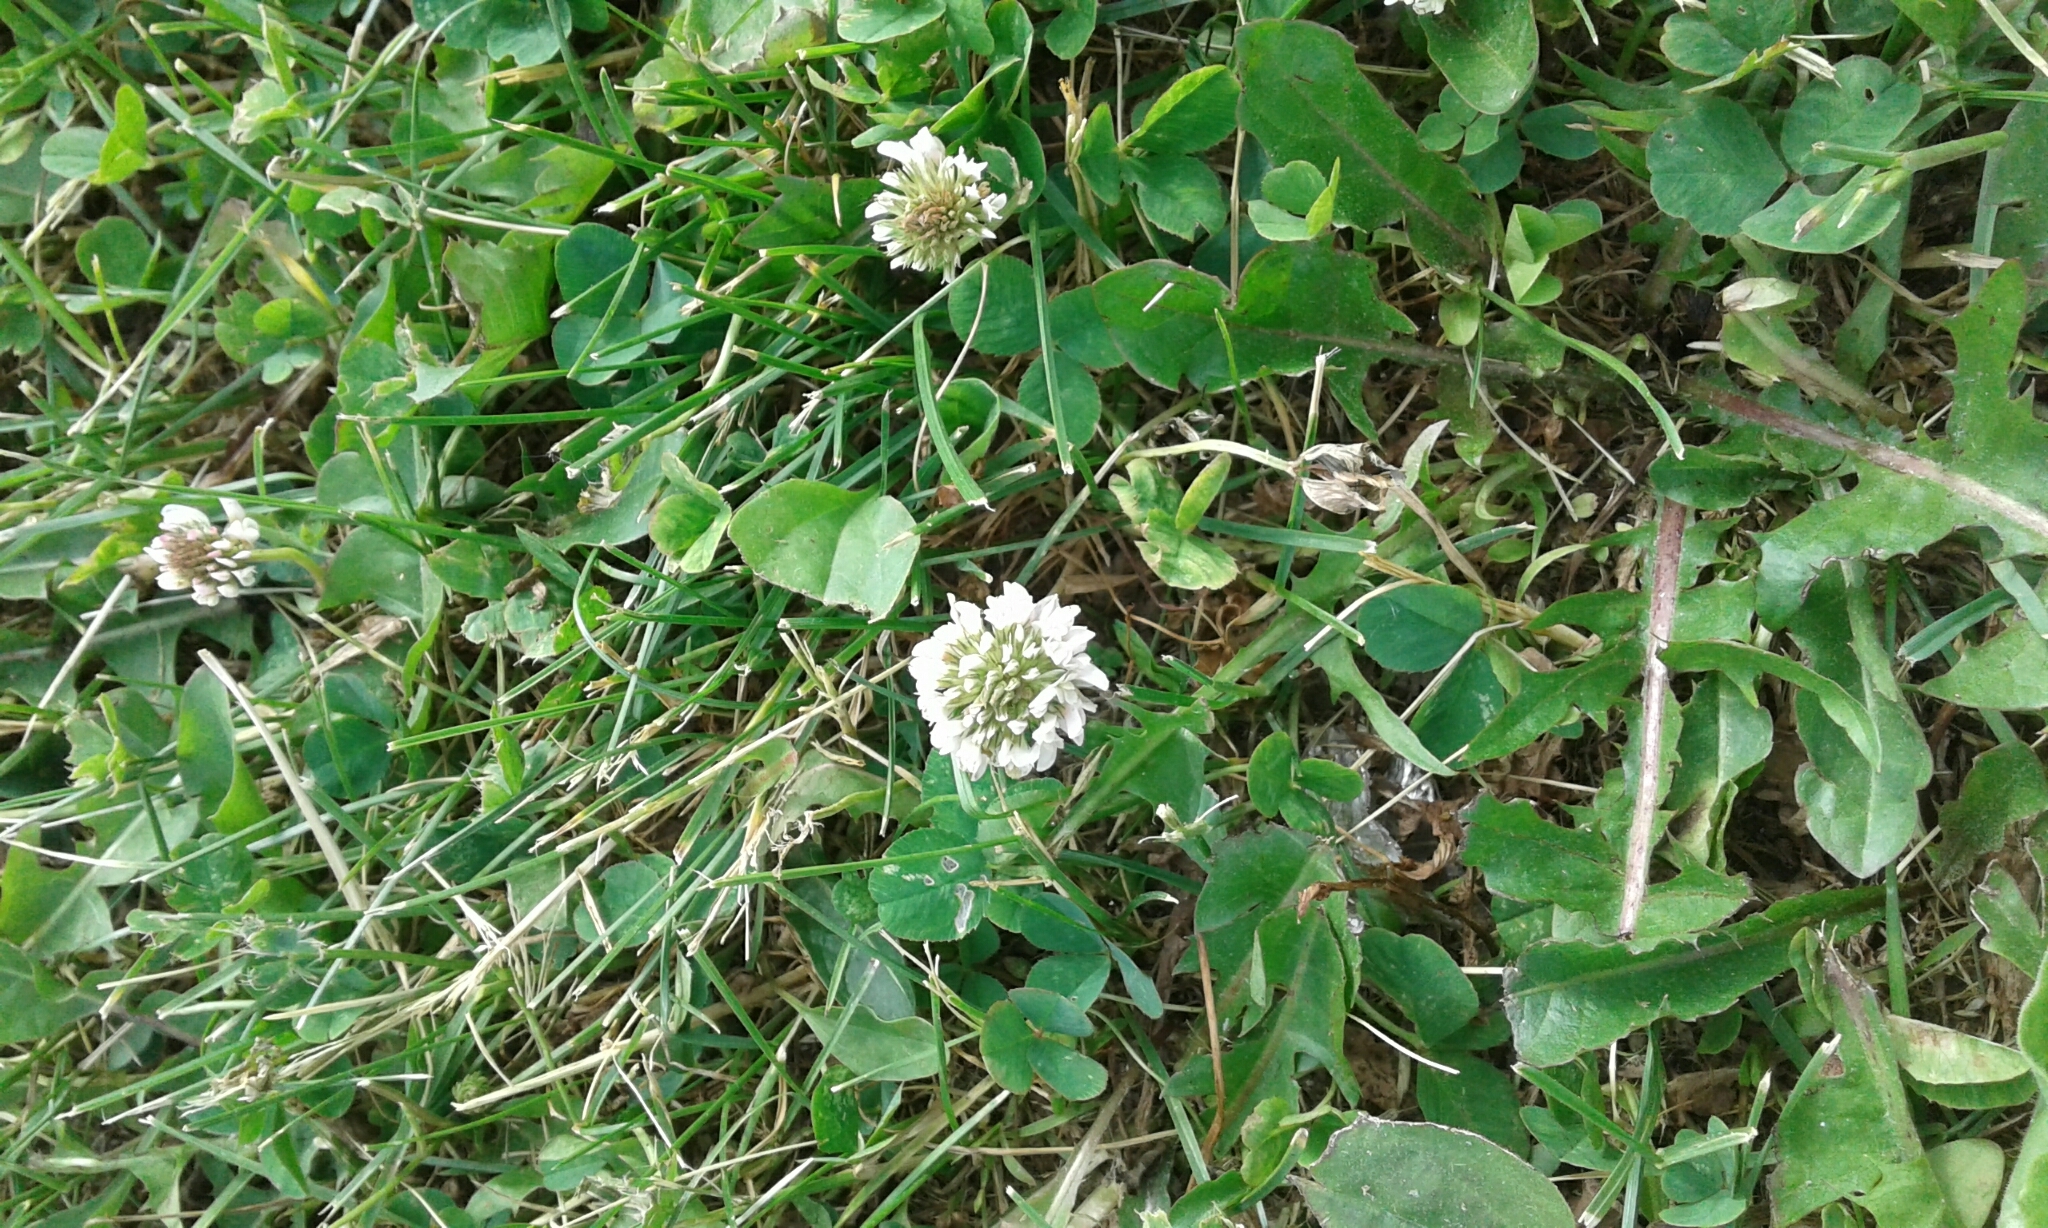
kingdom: Plantae
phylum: Tracheophyta
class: Magnoliopsida
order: Fabales
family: Fabaceae
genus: Trifolium
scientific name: Trifolium repens
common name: White clover
